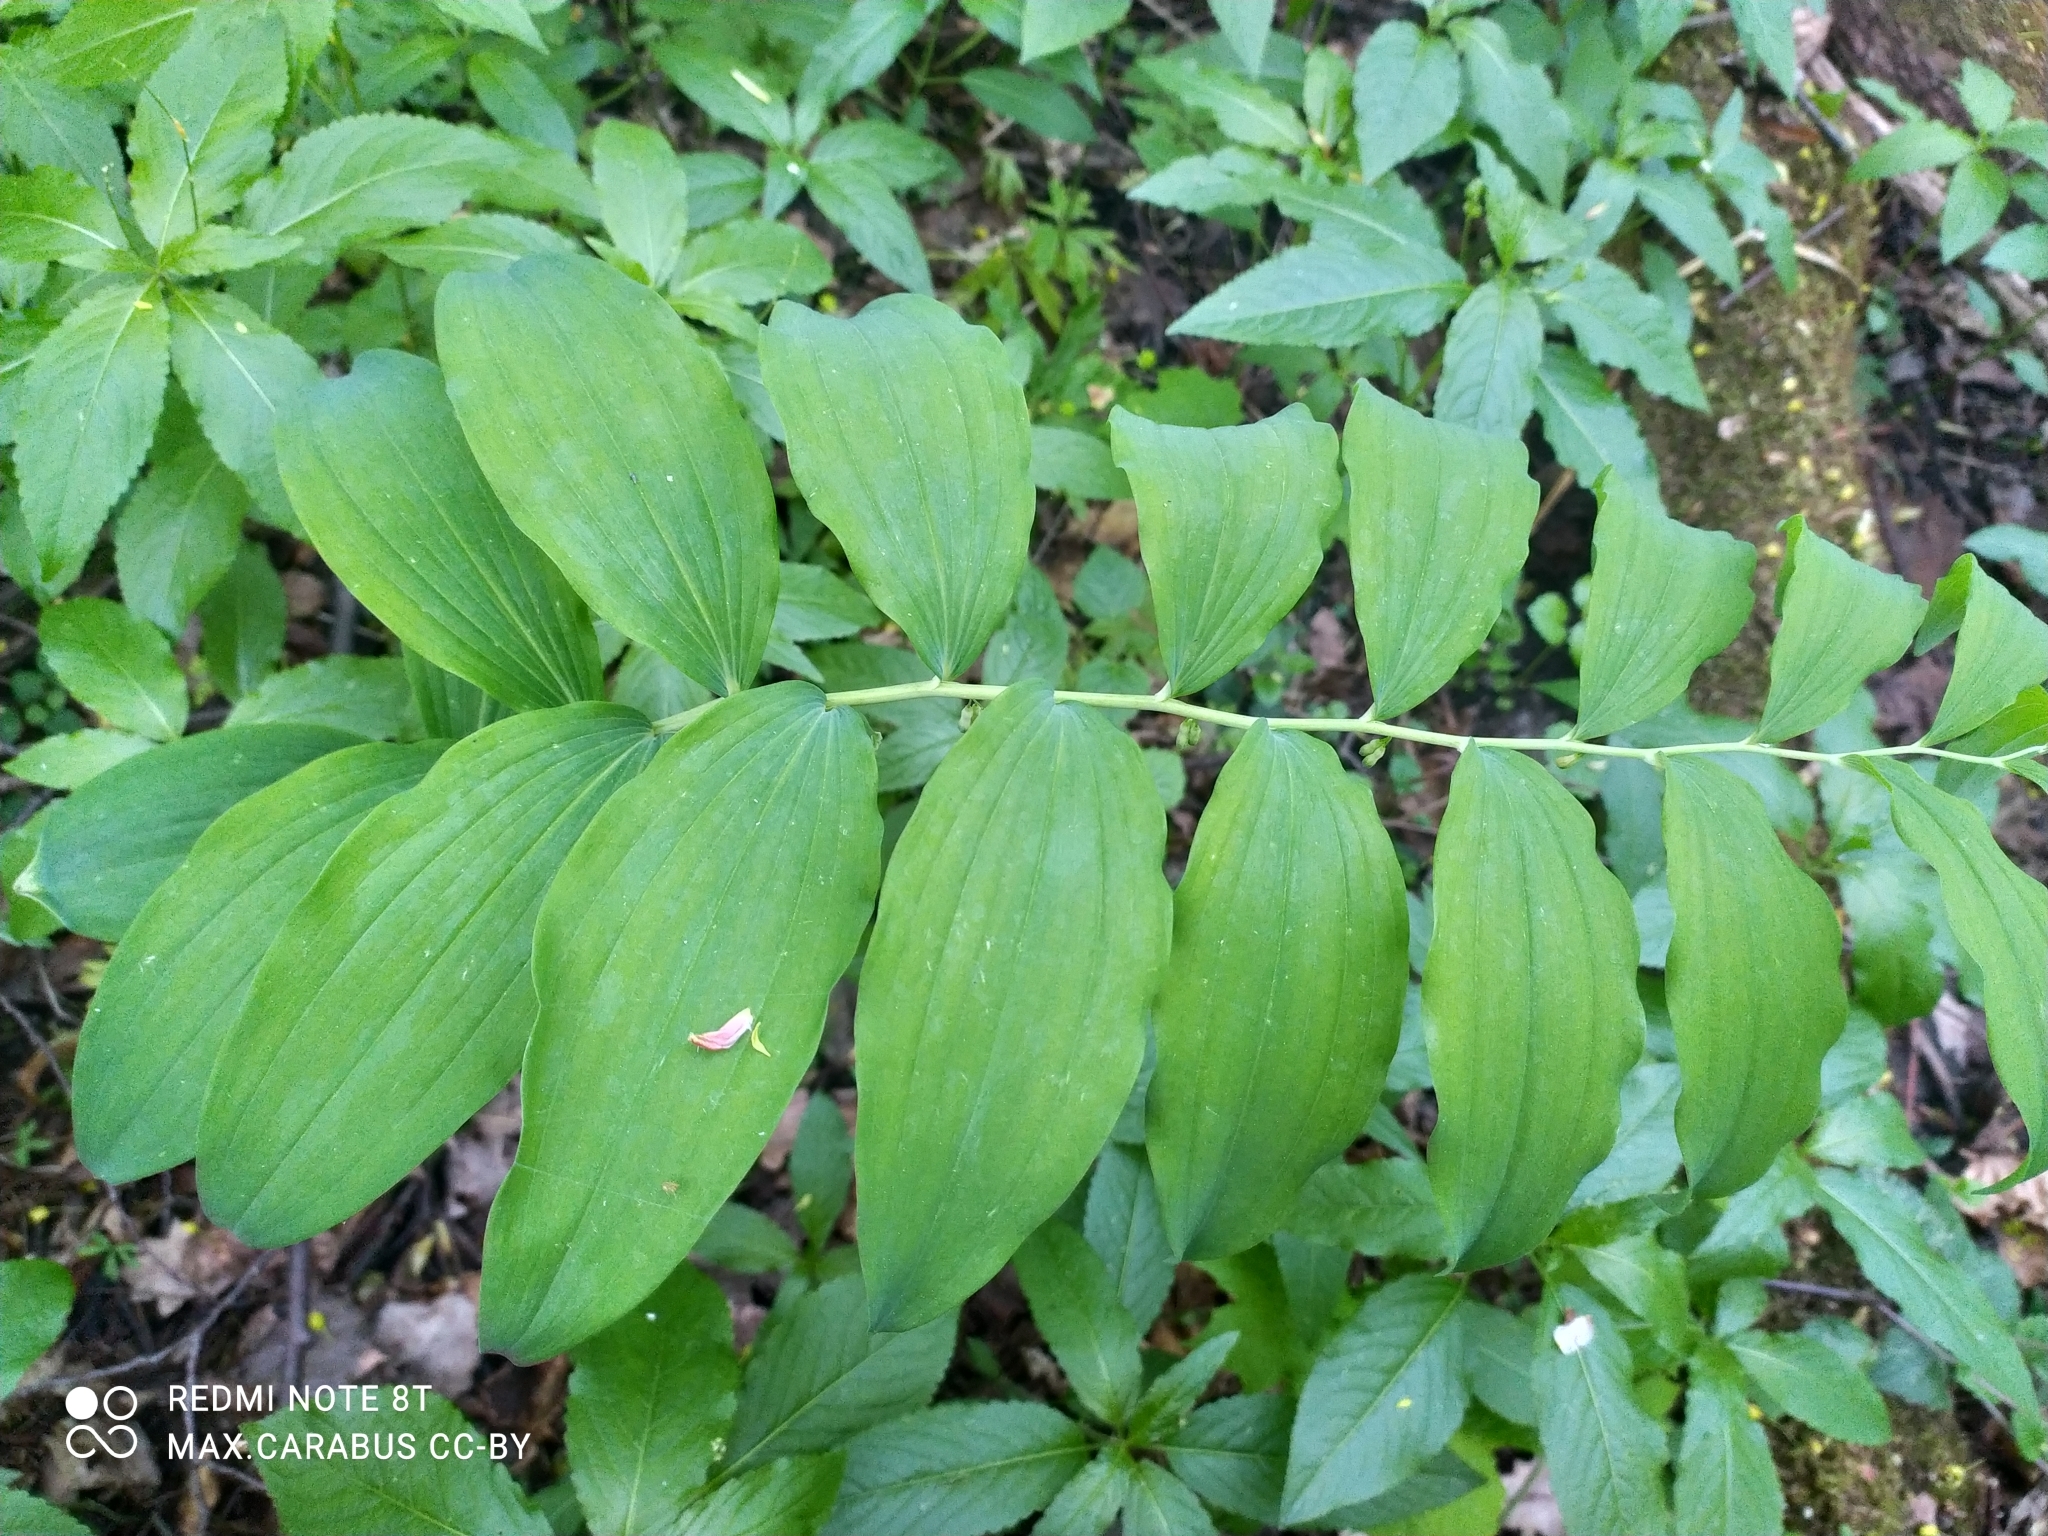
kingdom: Plantae
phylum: Tracheophyta
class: Liliopsida
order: Asparagales
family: Asparagaceae
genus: Polygonatum
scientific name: Polygonatum multiflorum
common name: Solomon's-seal
